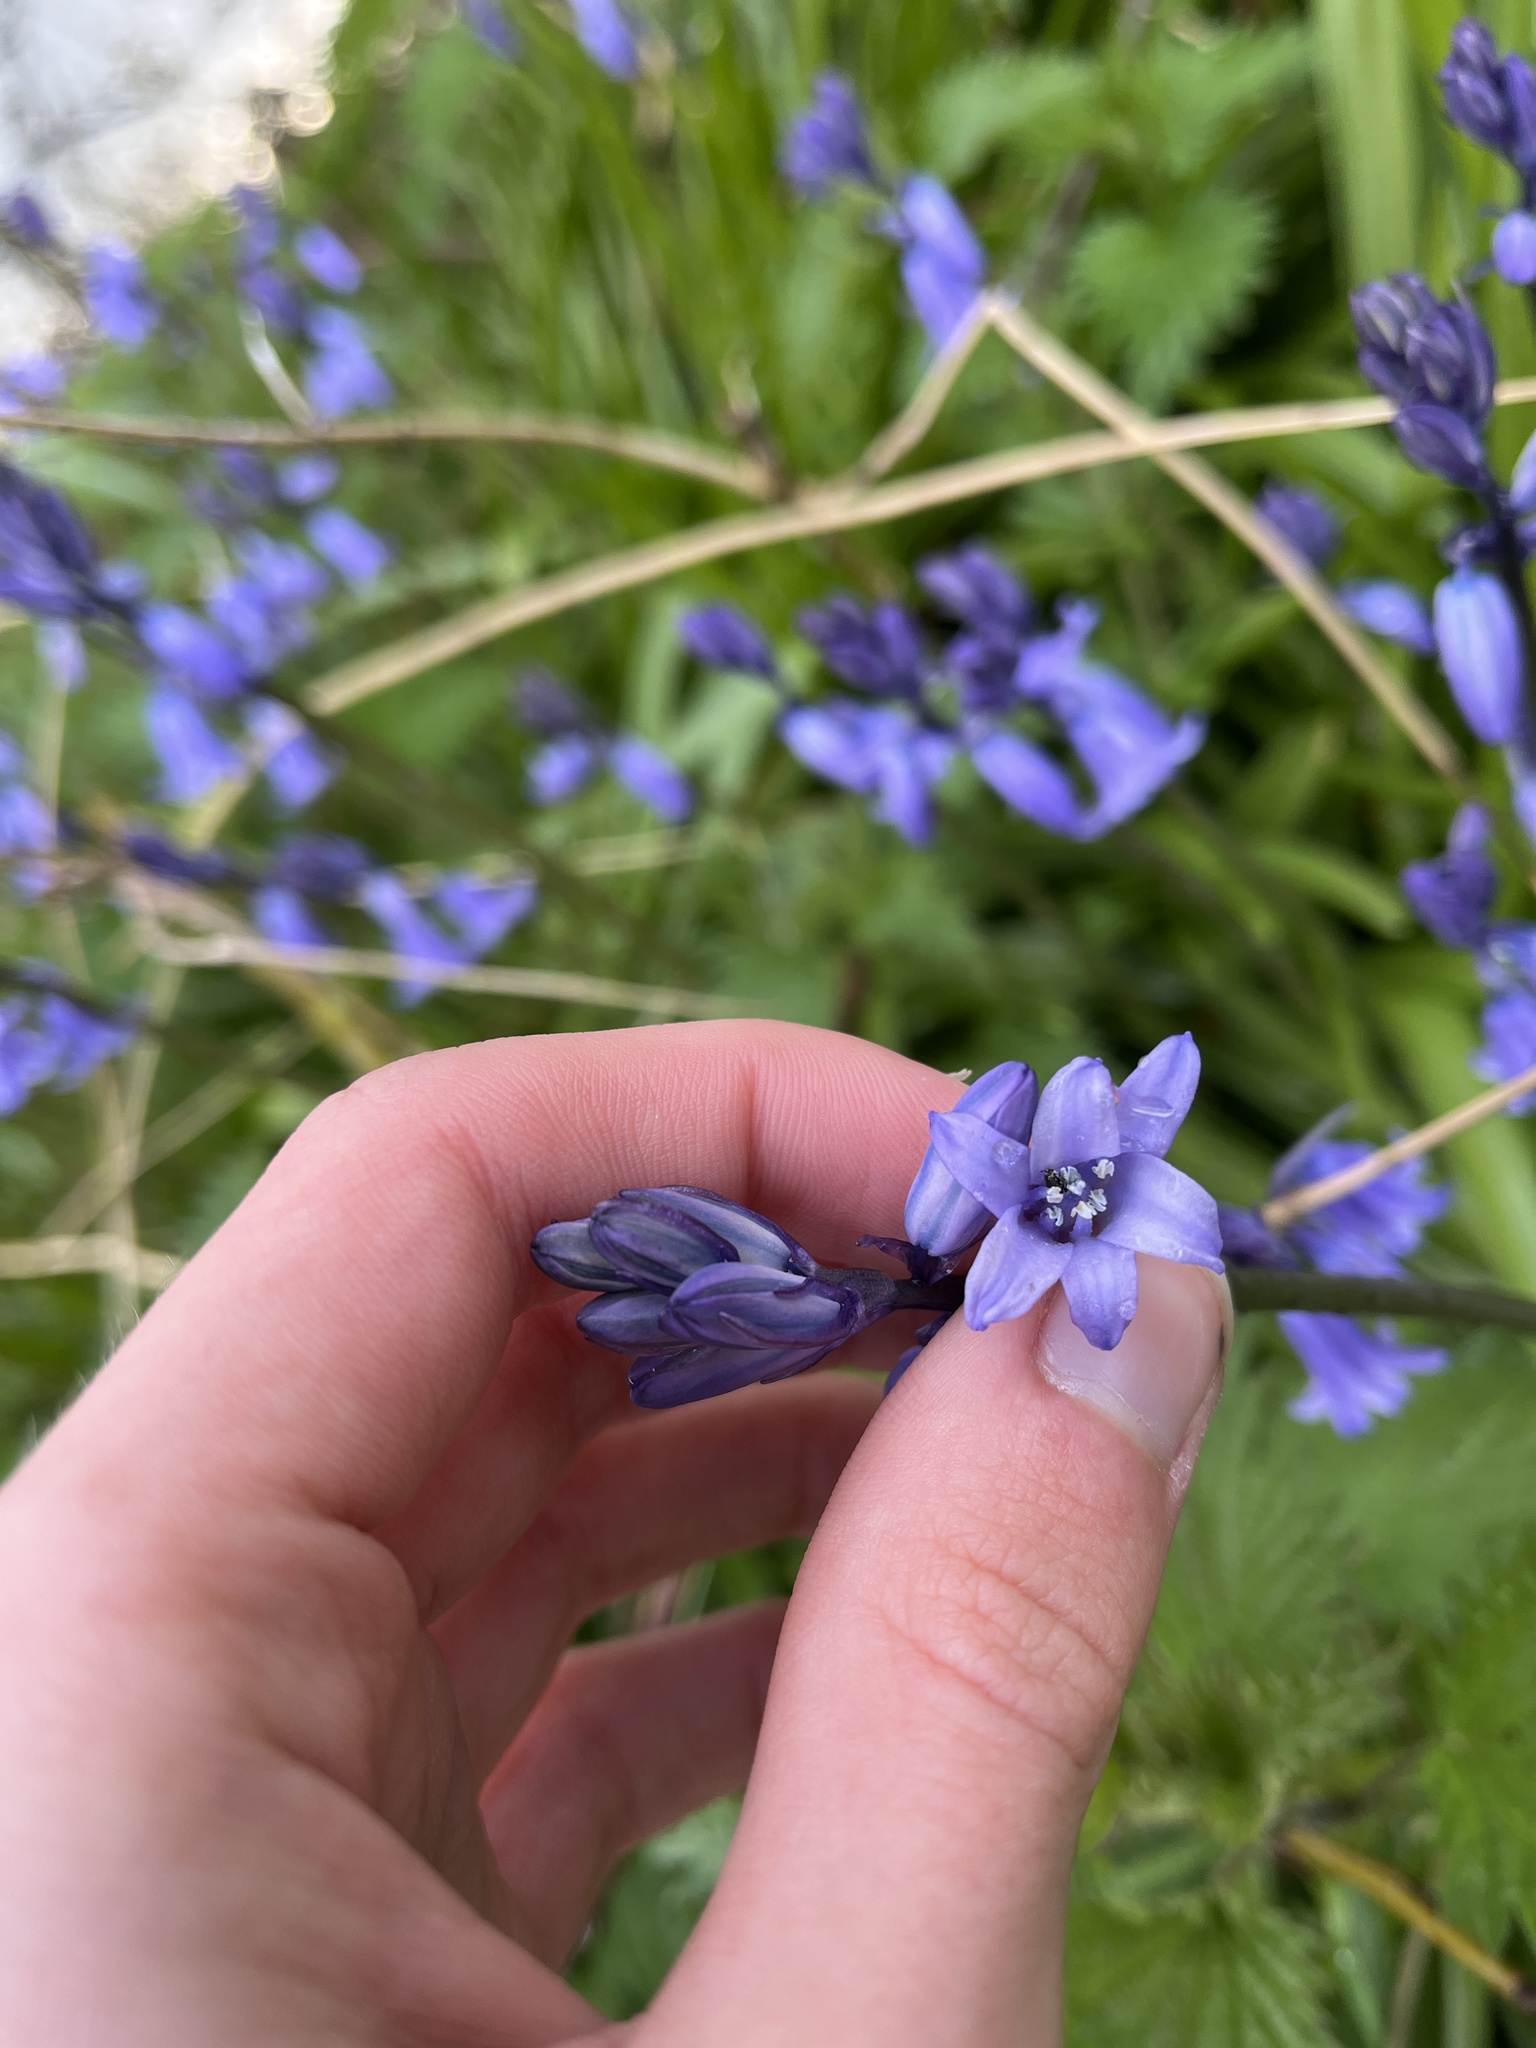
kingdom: Plantae
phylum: Tracheophyta
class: Liliopsida
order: Asparagales
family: Asparagaceae
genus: Hyacinthoides
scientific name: Hyacinthoides massartiana
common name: Hyacinthoides
